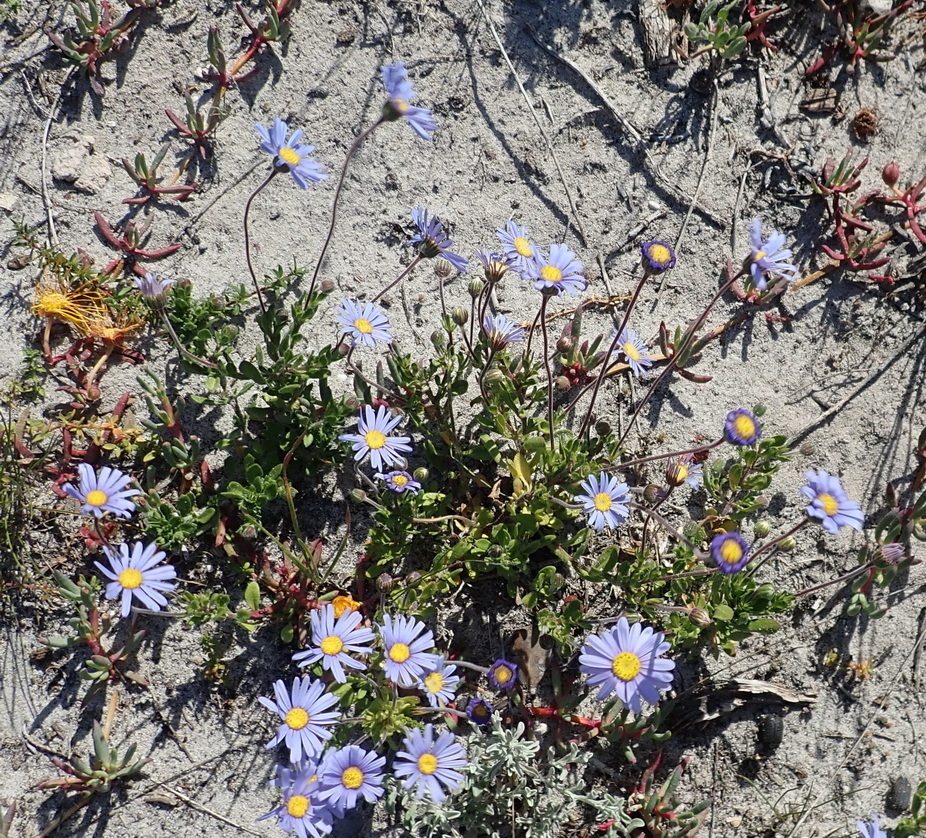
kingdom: Plantae
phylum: Tracheophyta
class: Magnoliopsida
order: Asterales
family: Asteraceae
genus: Felicia
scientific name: Felicia amoena
